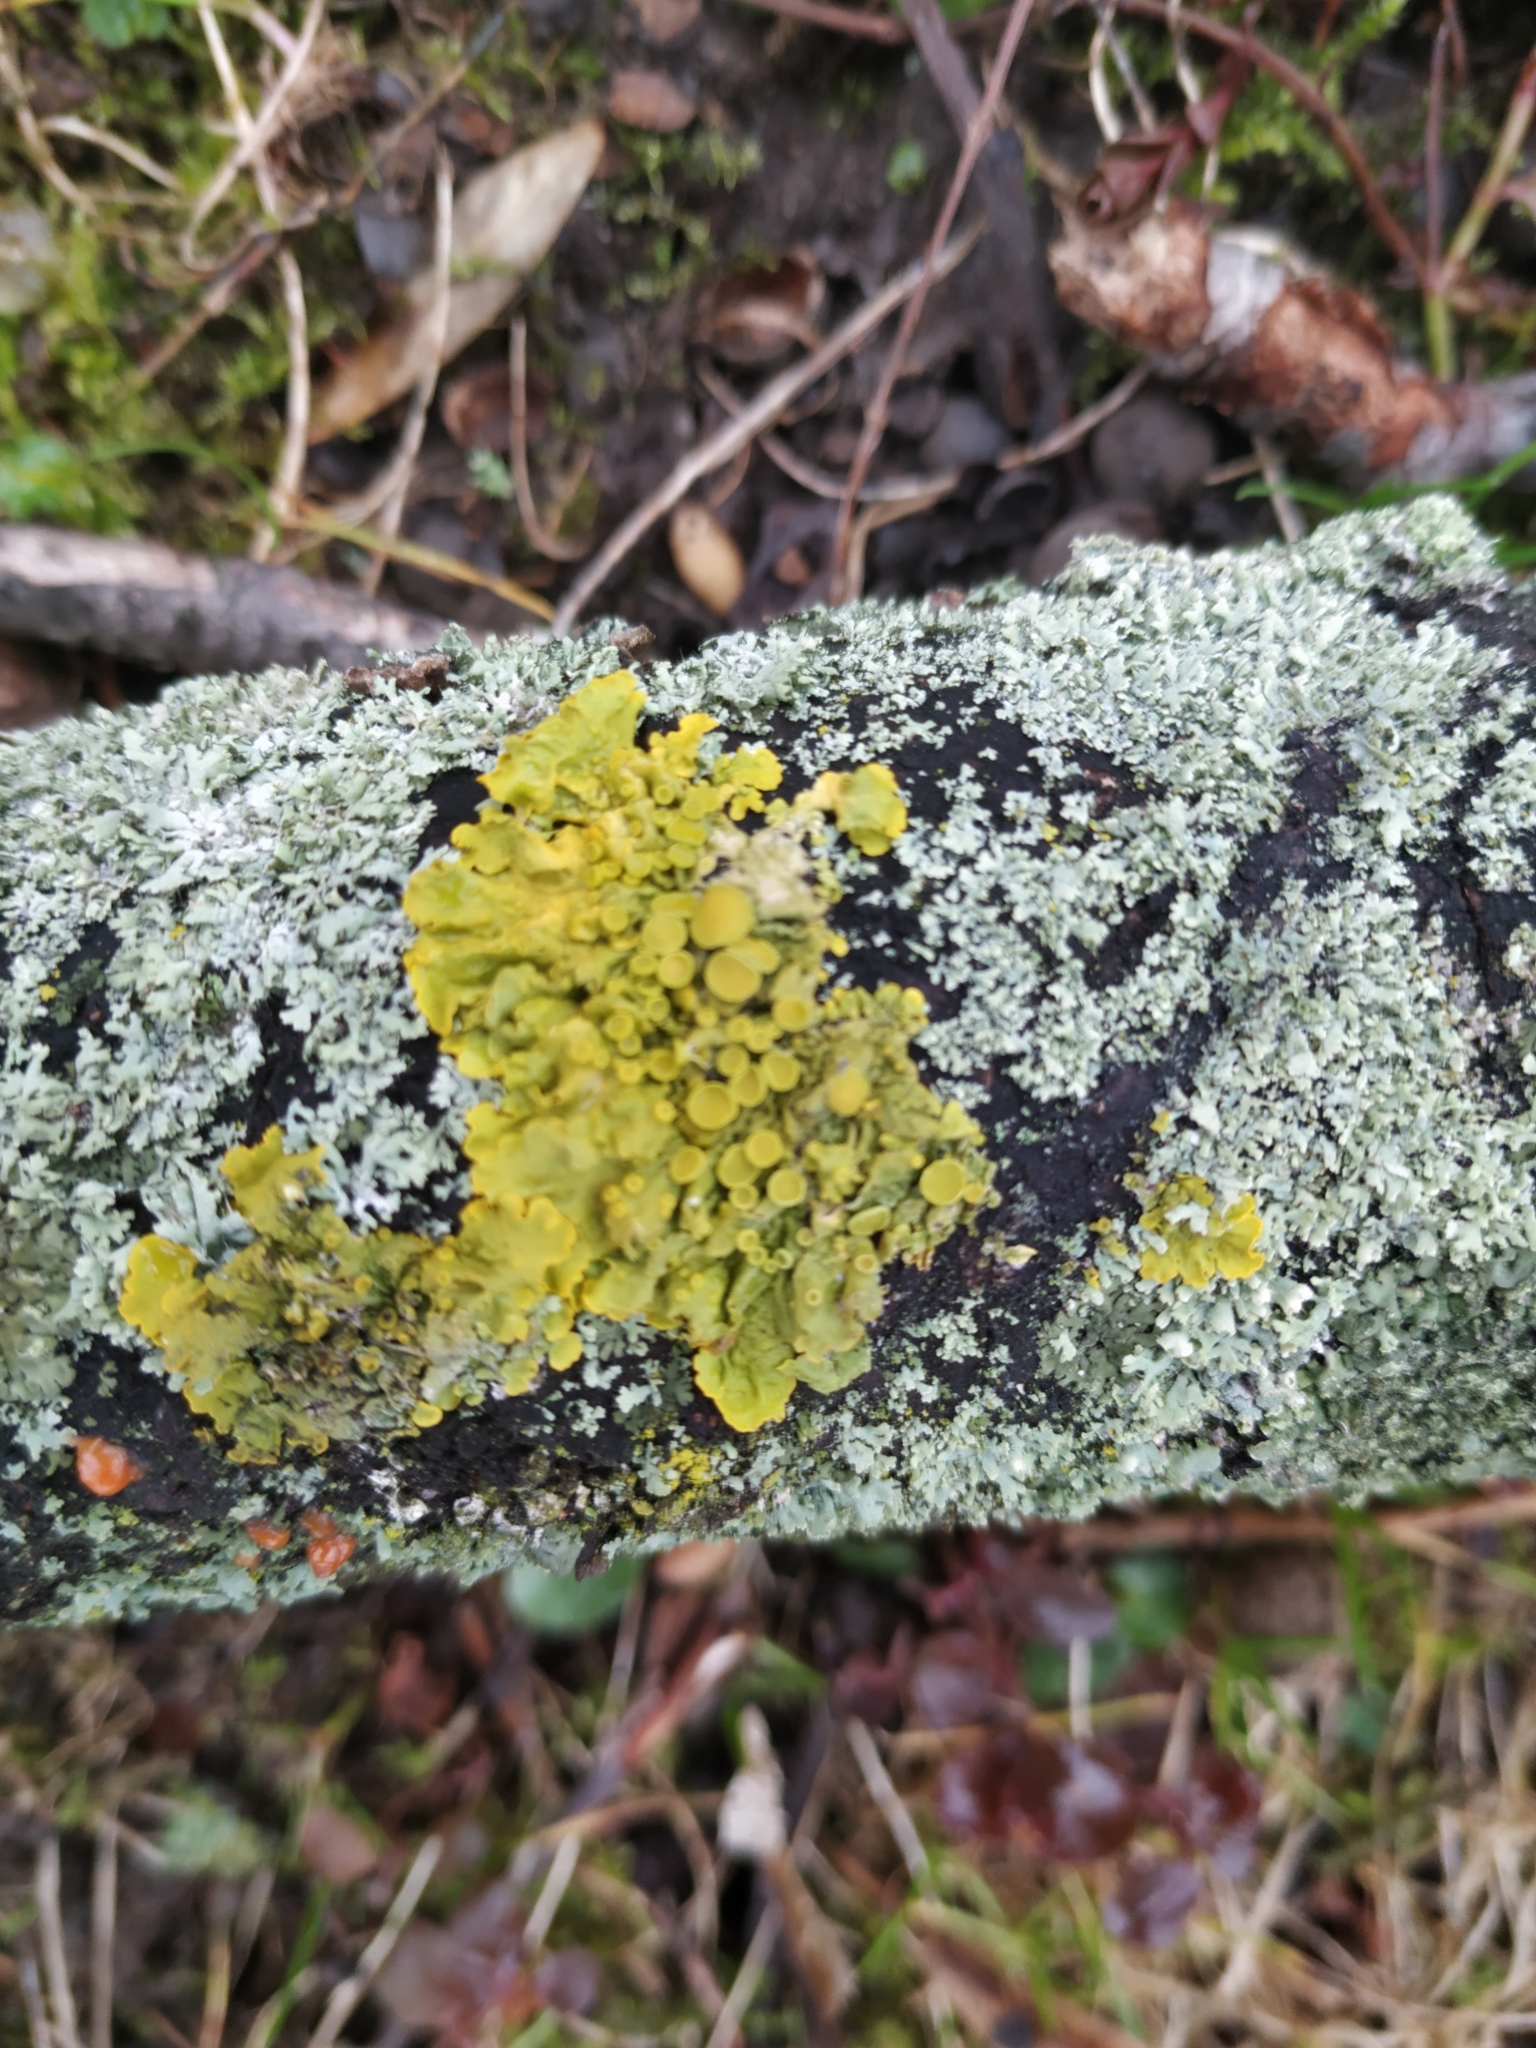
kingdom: Fungi
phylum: Ascomycota
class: Lecanoromycetes
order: Teloschistales
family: Teloschistaceae
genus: Xanthoria
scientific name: Xanthoria parietina
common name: Common orange lichen
